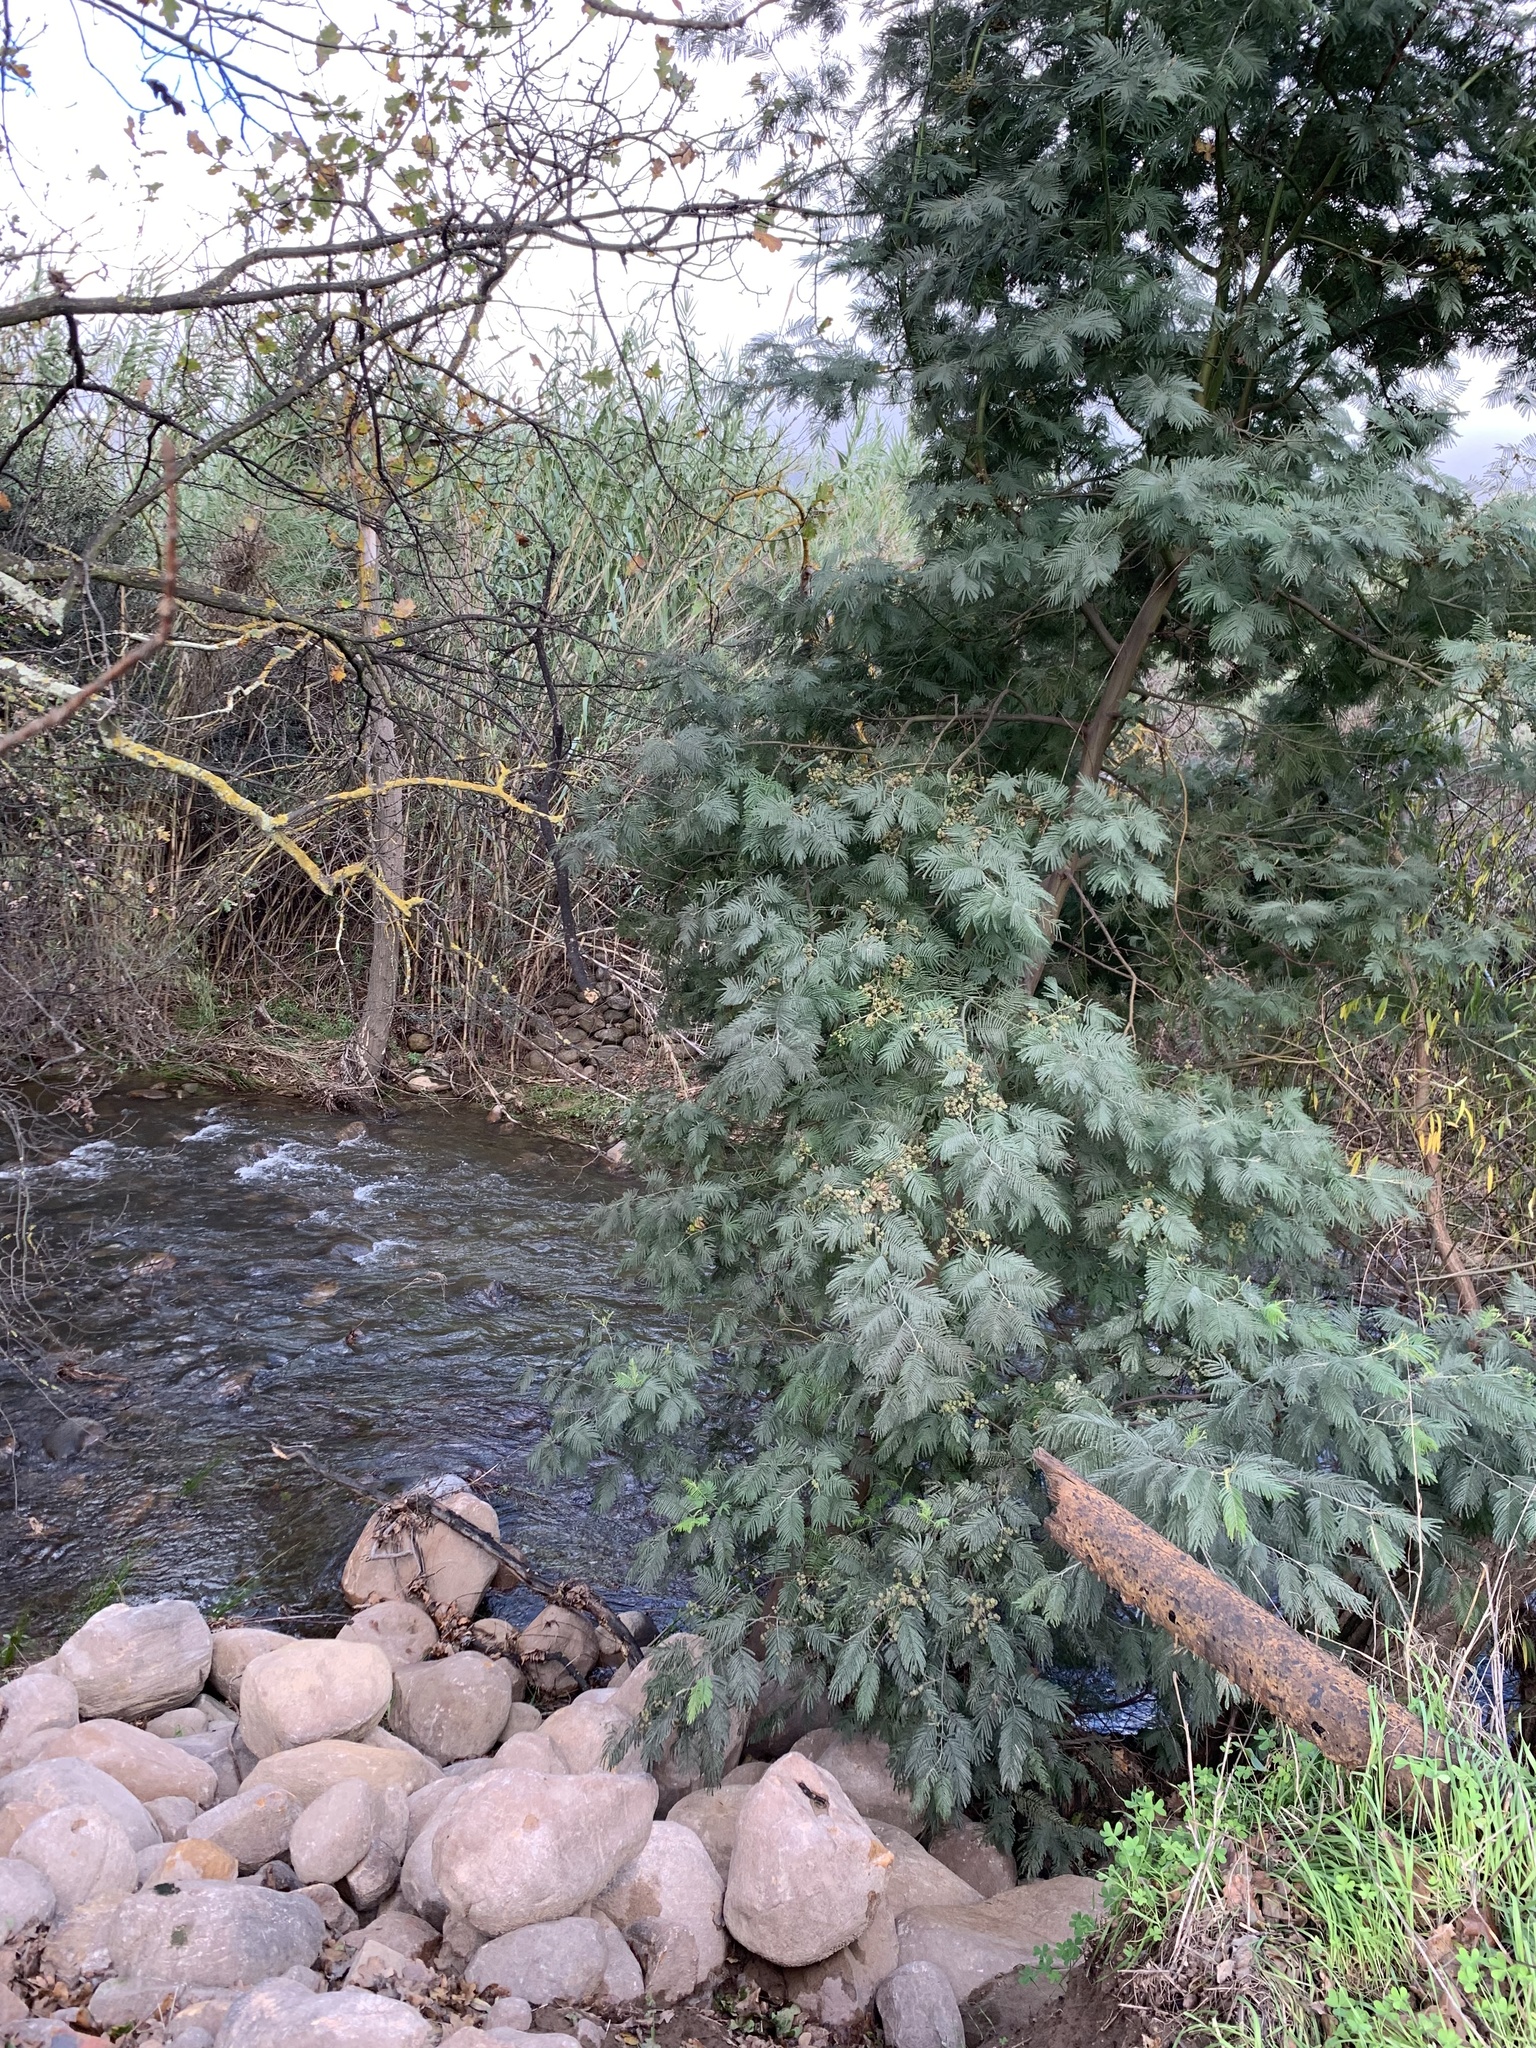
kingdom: Plantae
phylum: Tracheophyta
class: Magnoliopsida
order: Fabales
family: Fabaceae
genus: Acacia
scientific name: Acacia mearnsii
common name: Black wattle
